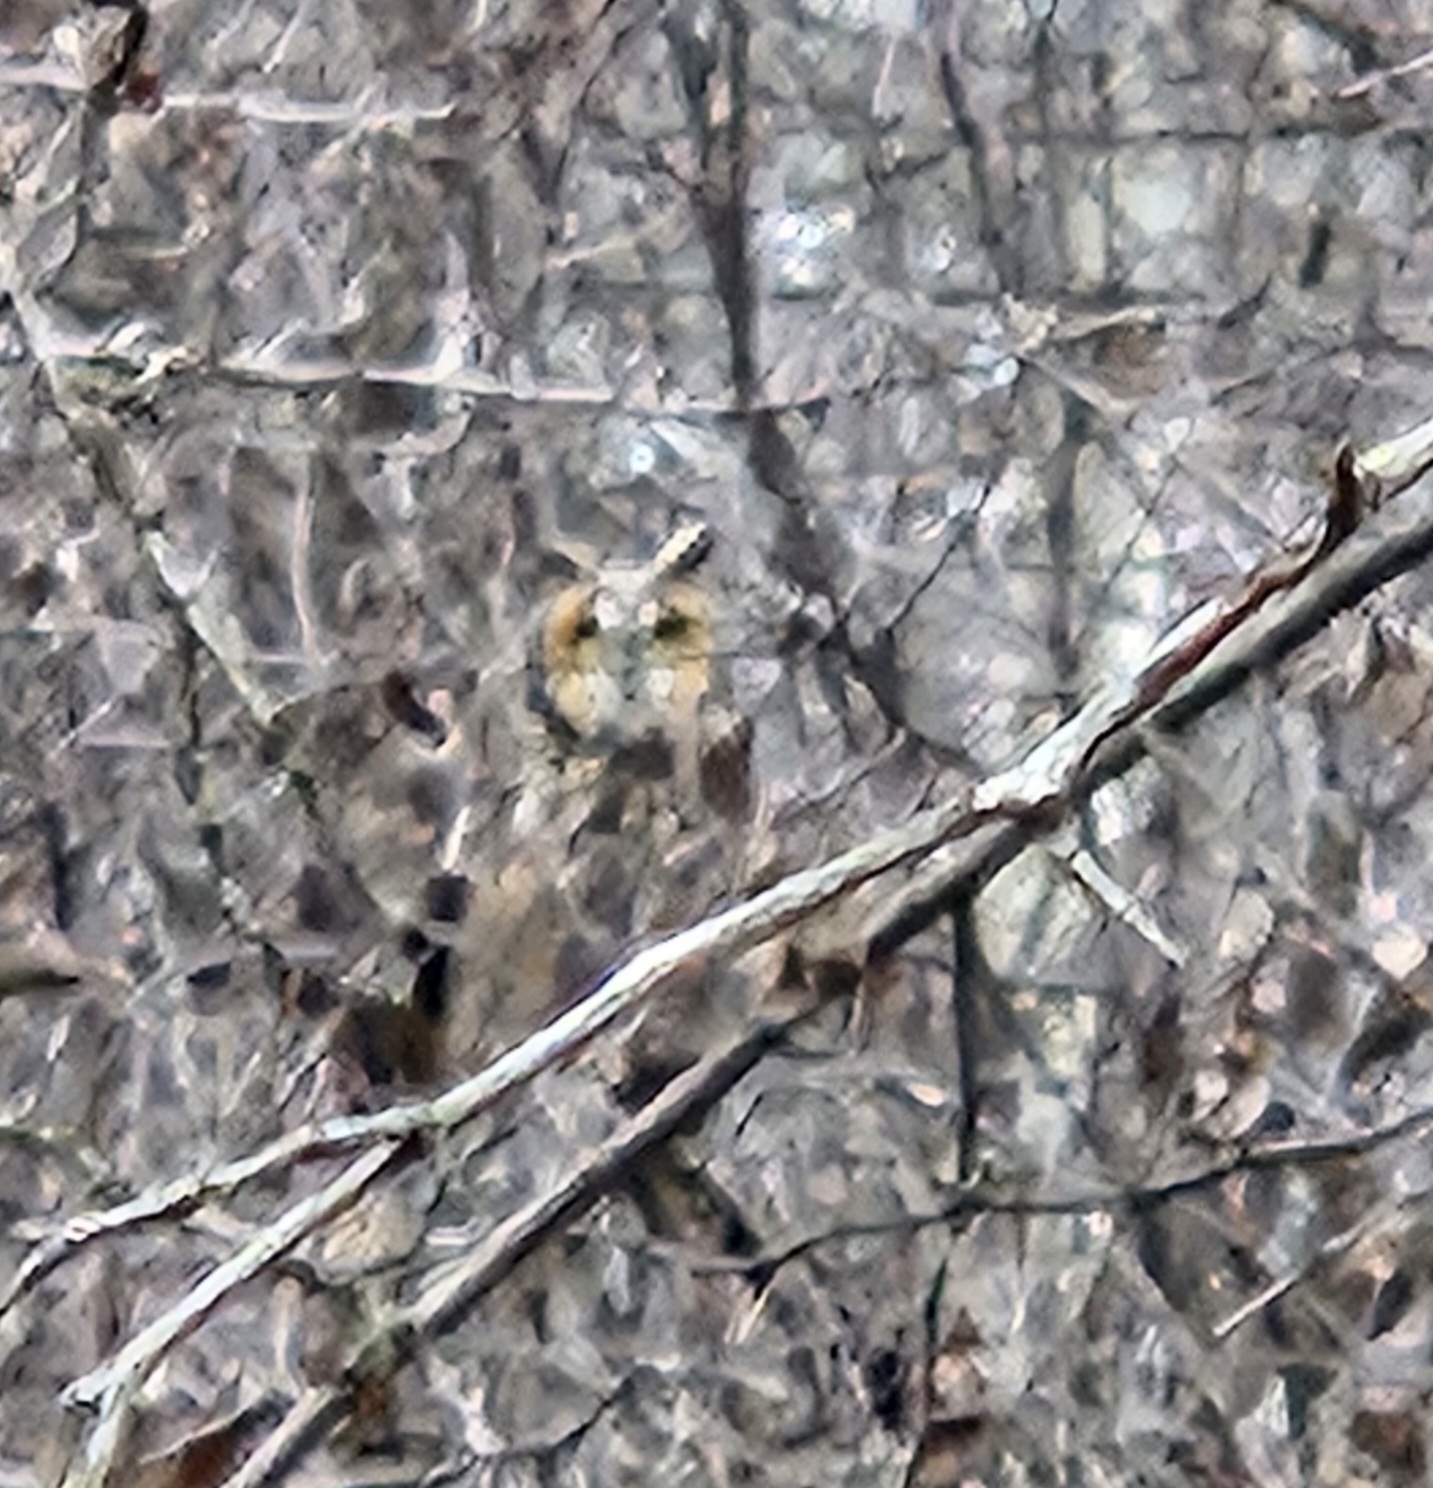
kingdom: Animalia
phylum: Chordata
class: Aves
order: Strigiformes
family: Strigidae
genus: Asio
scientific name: Asio otus
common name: Long-eared owl
